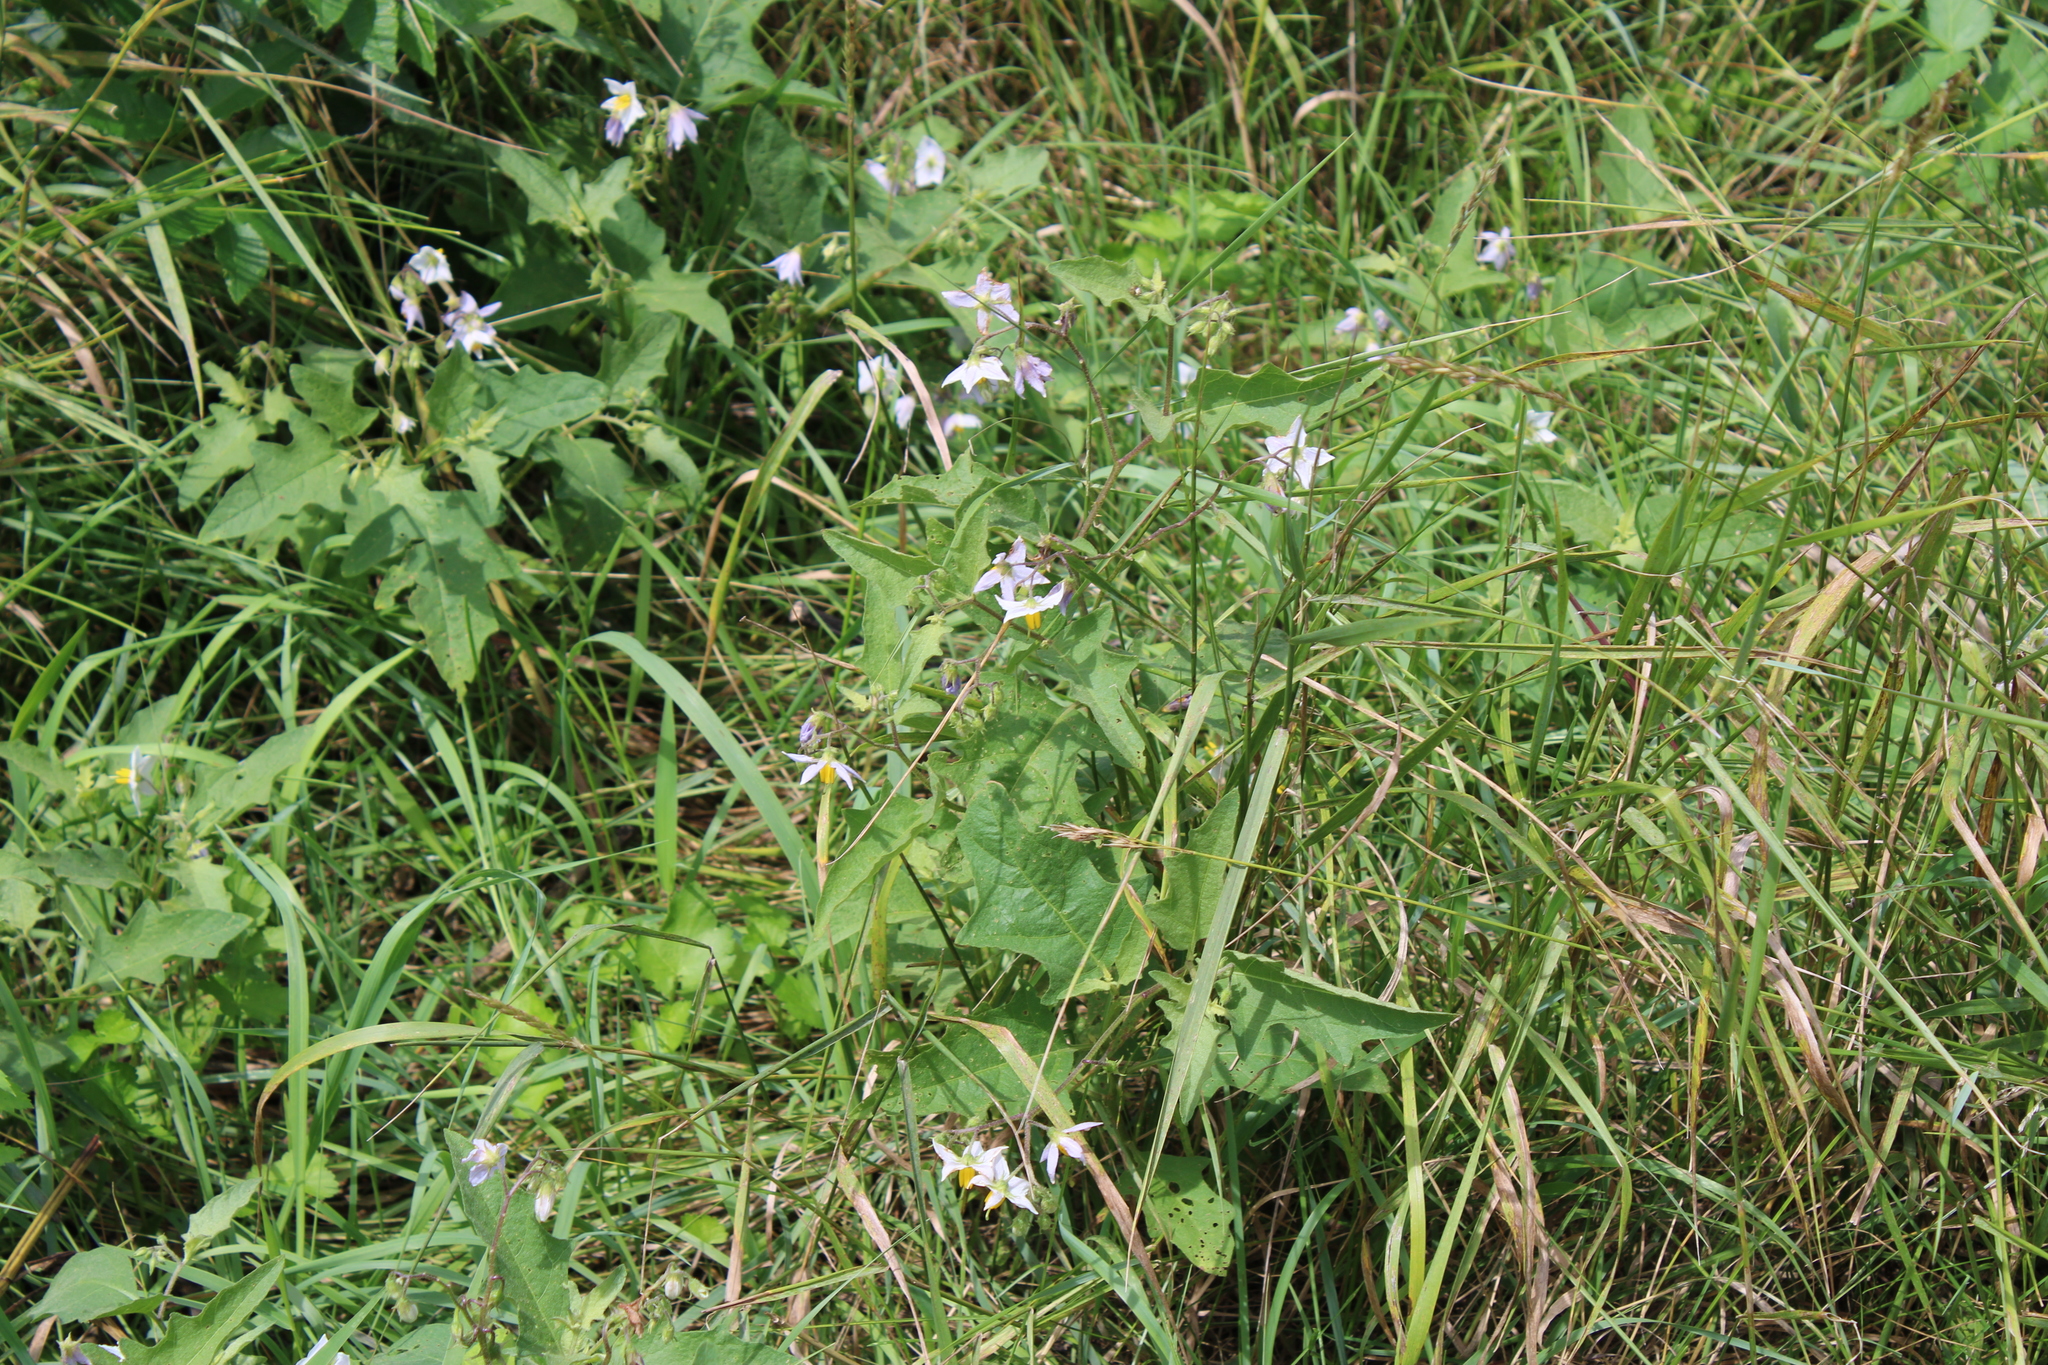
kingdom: Plantae
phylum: Tracheophyta
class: Magnoliopsida
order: Solanales
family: Solanaceae
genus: Solanum
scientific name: Solanum carolinense
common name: Horse-nettle
